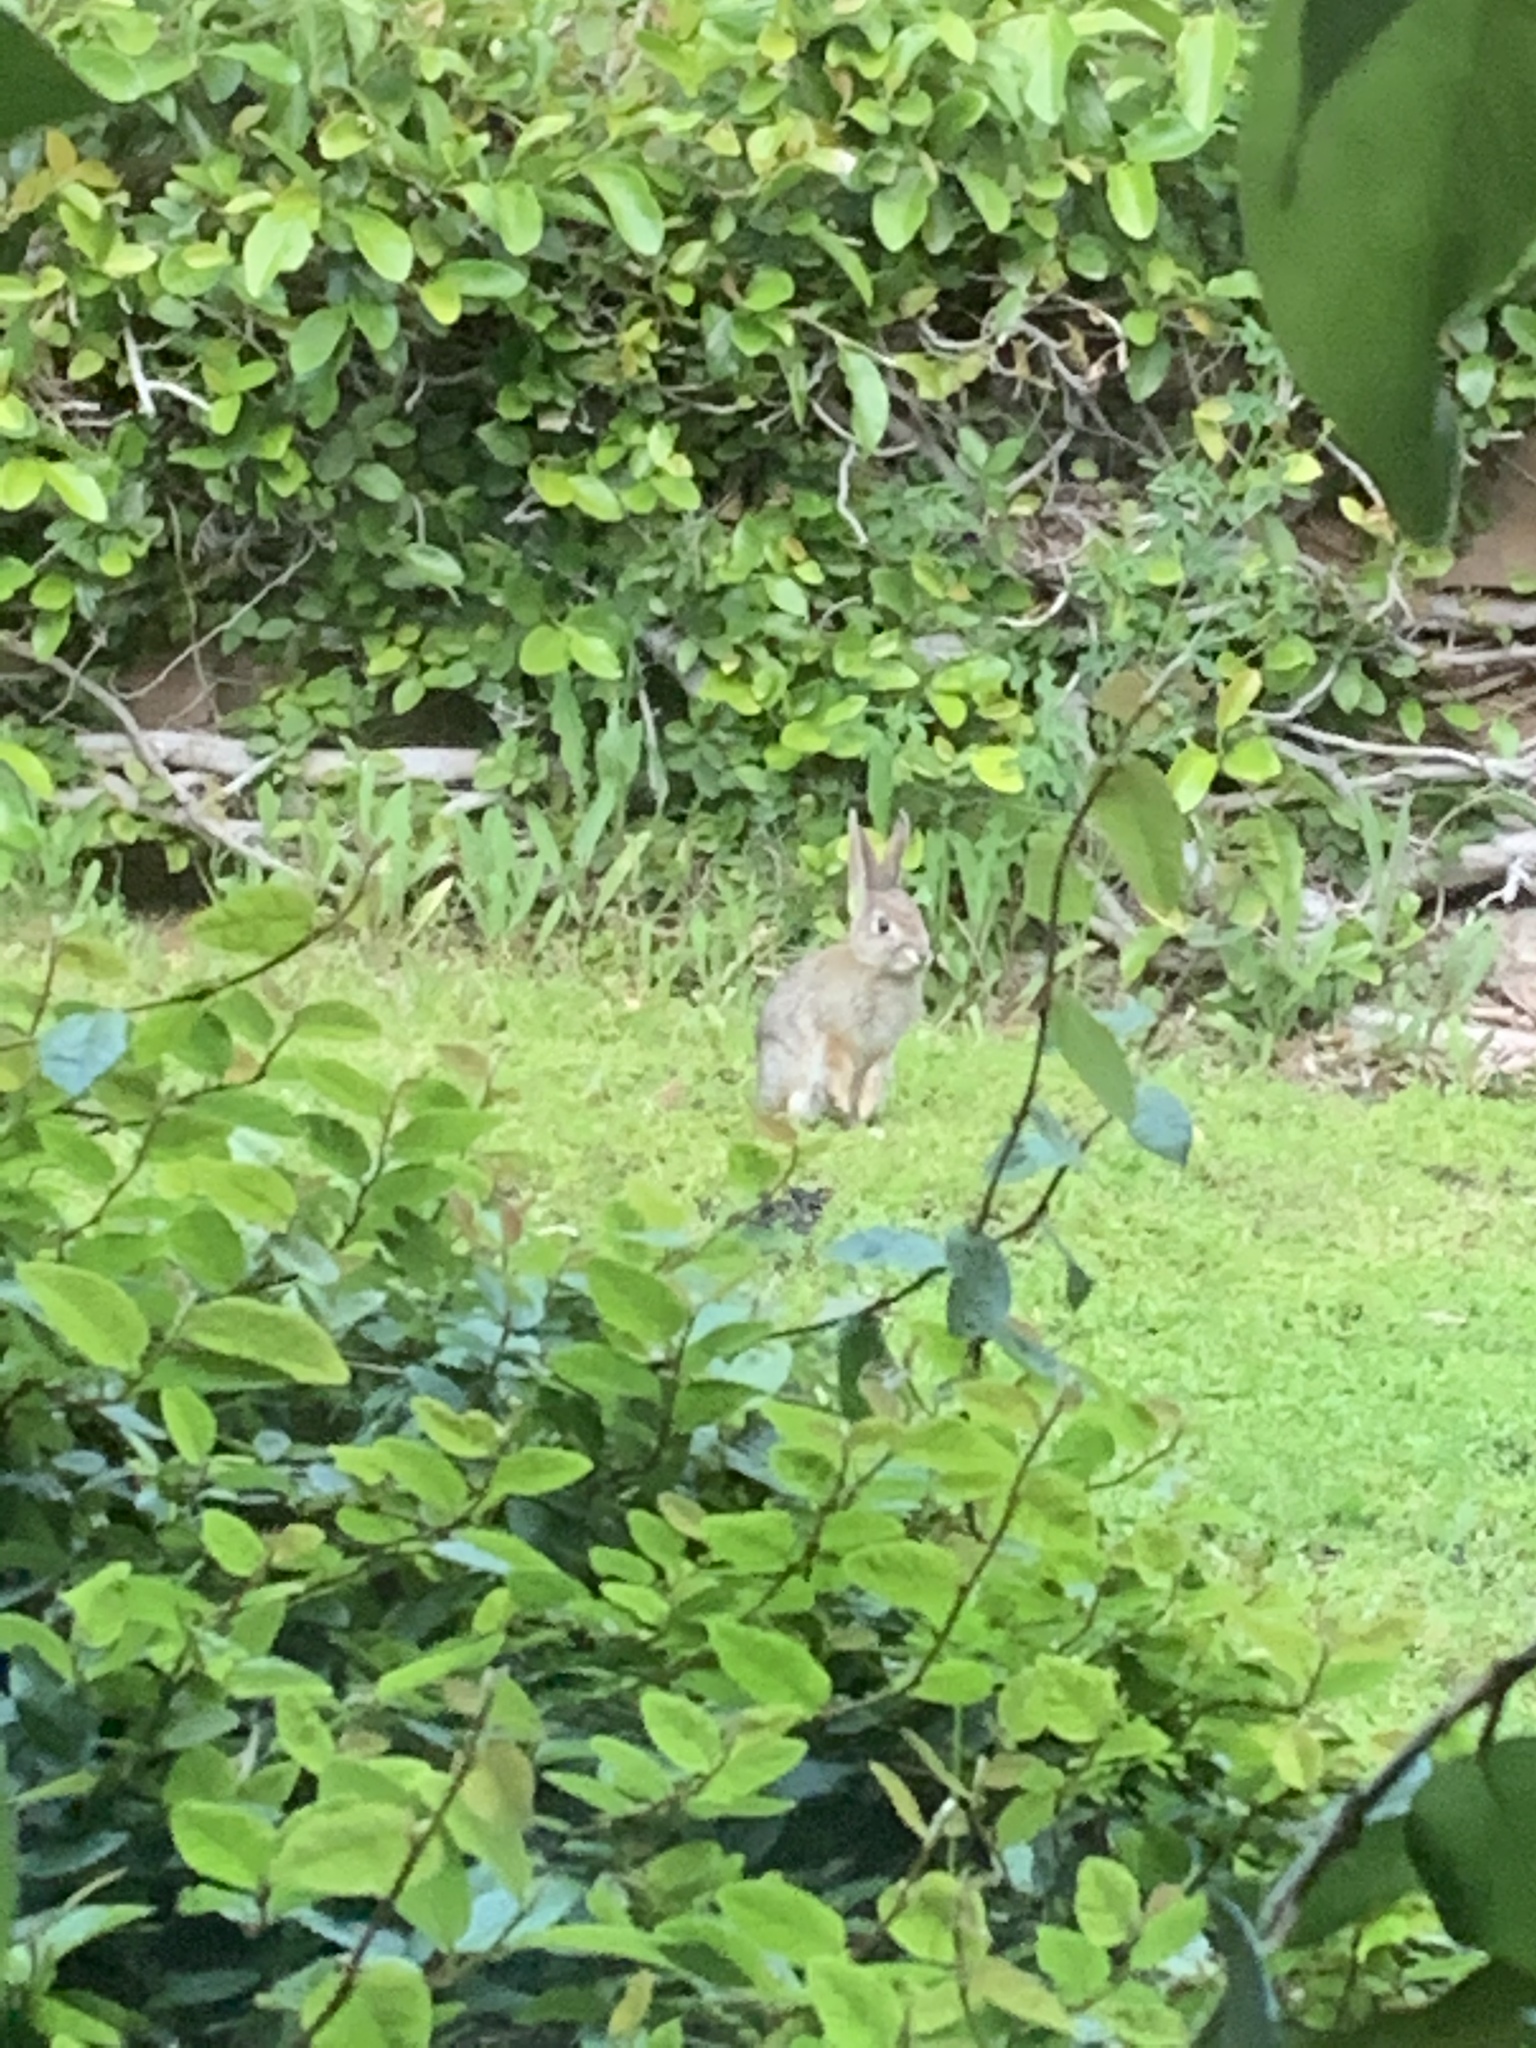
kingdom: Animalia
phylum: Chordata
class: Mammalia
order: Lagomorpha
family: Leporidae
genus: Sylvilagus
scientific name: Sylvilagus audubonii
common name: Desert cottontail
